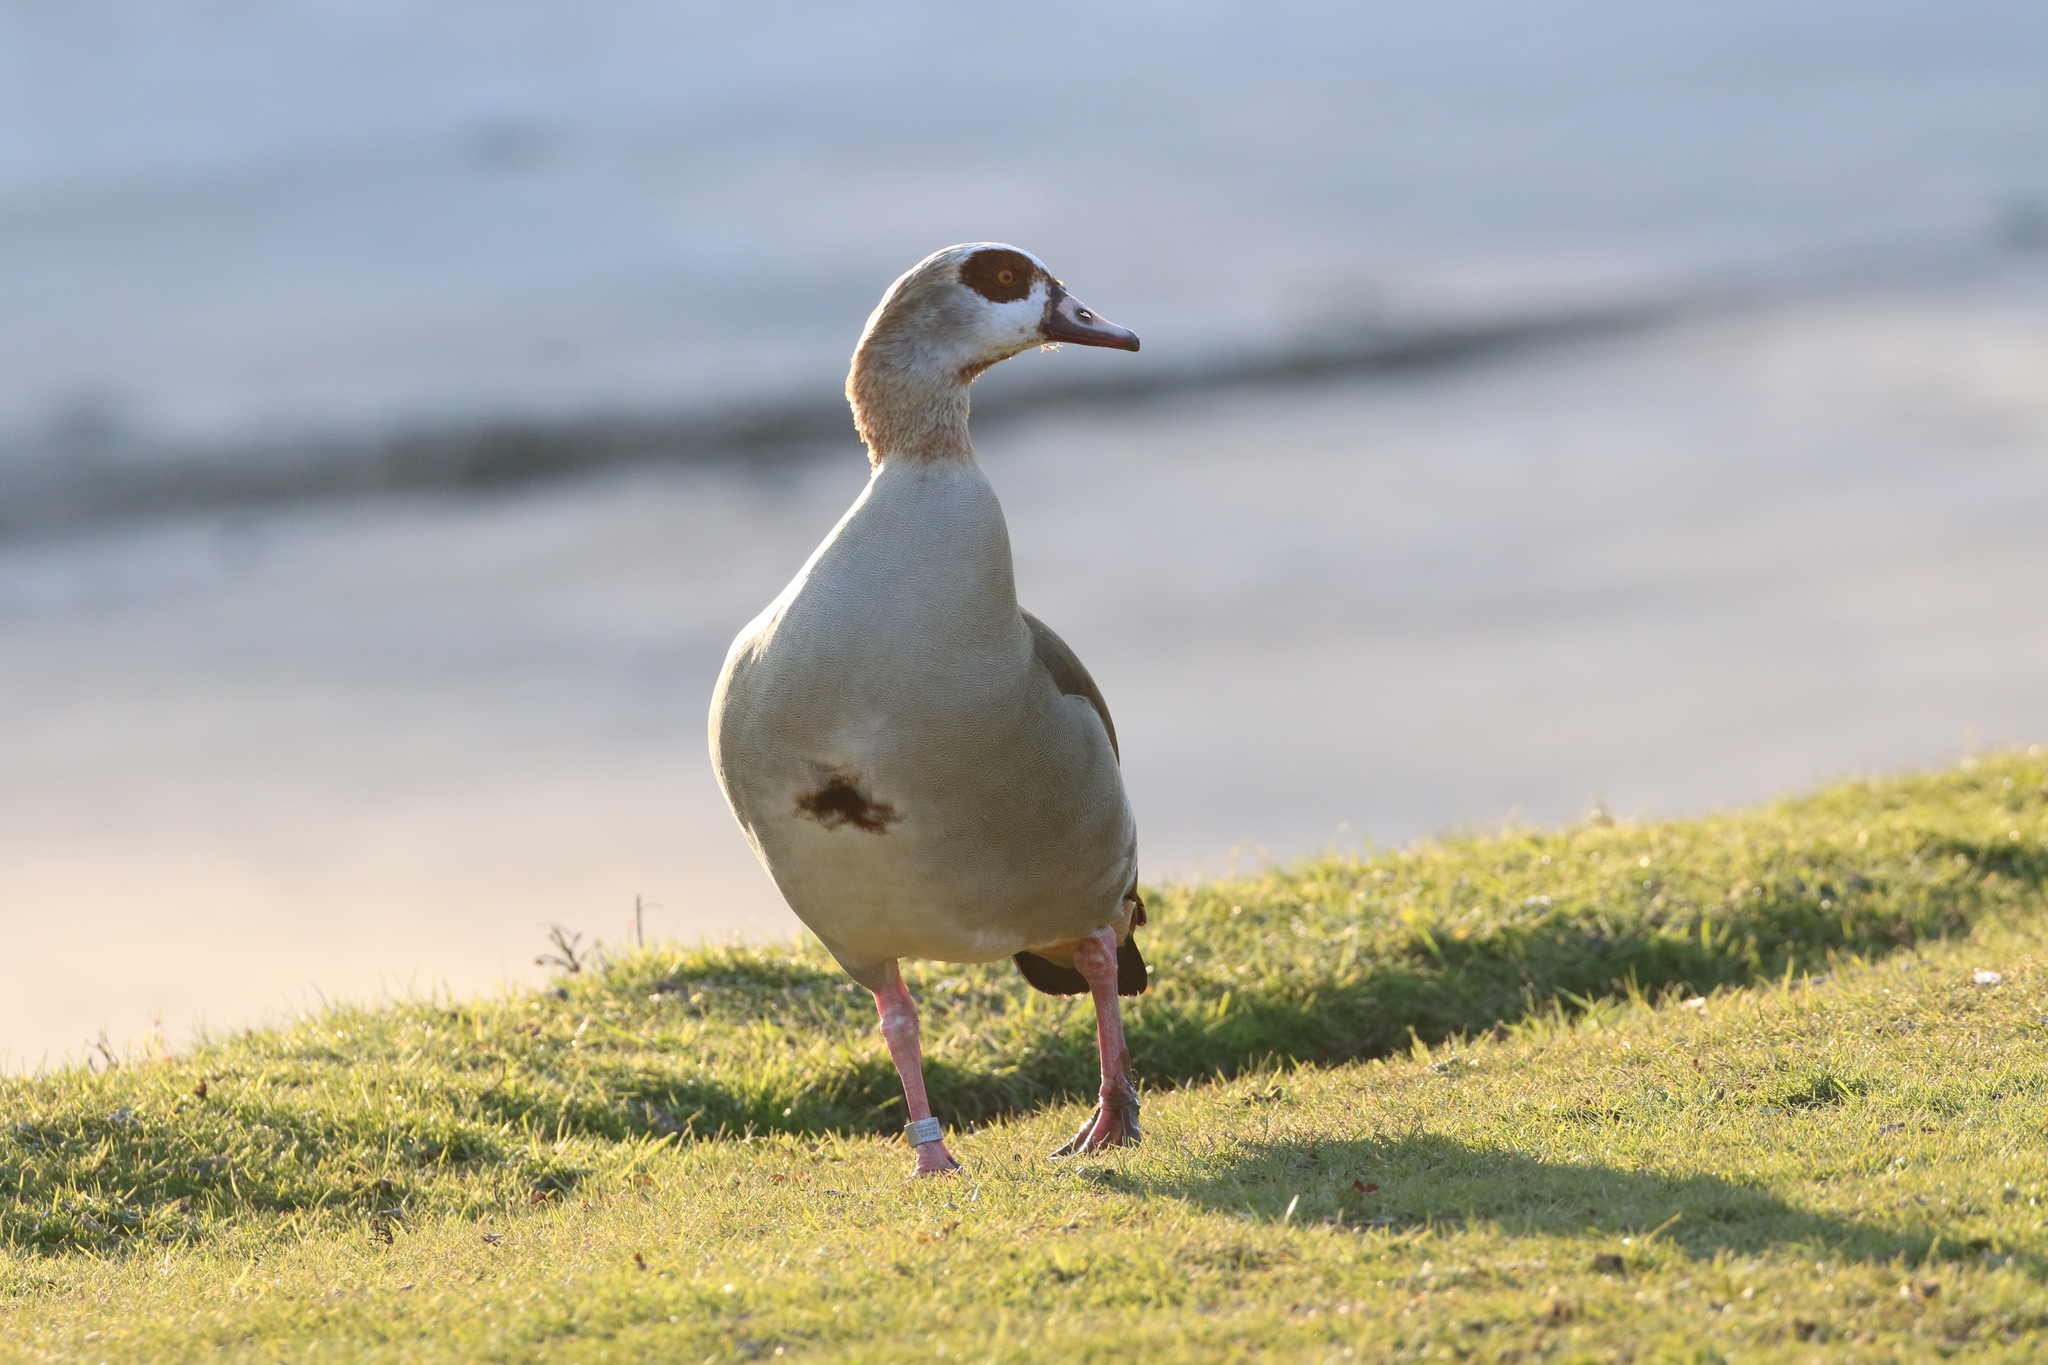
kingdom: Animalia
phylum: Chordata
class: Aves
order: Anseriformes
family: Anatidae
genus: Alopochen
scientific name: Alopochen aegyptiaca
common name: Egyptian goose
